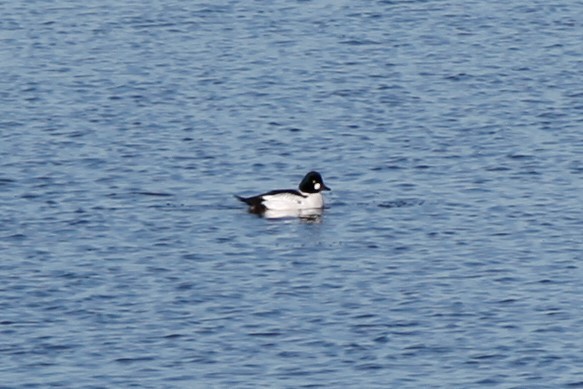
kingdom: Animalia
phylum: Chordata
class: Aves
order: Anseriformes
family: Anatidae
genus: Bucephala
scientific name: Bucephala clangula
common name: Common goldeneye
